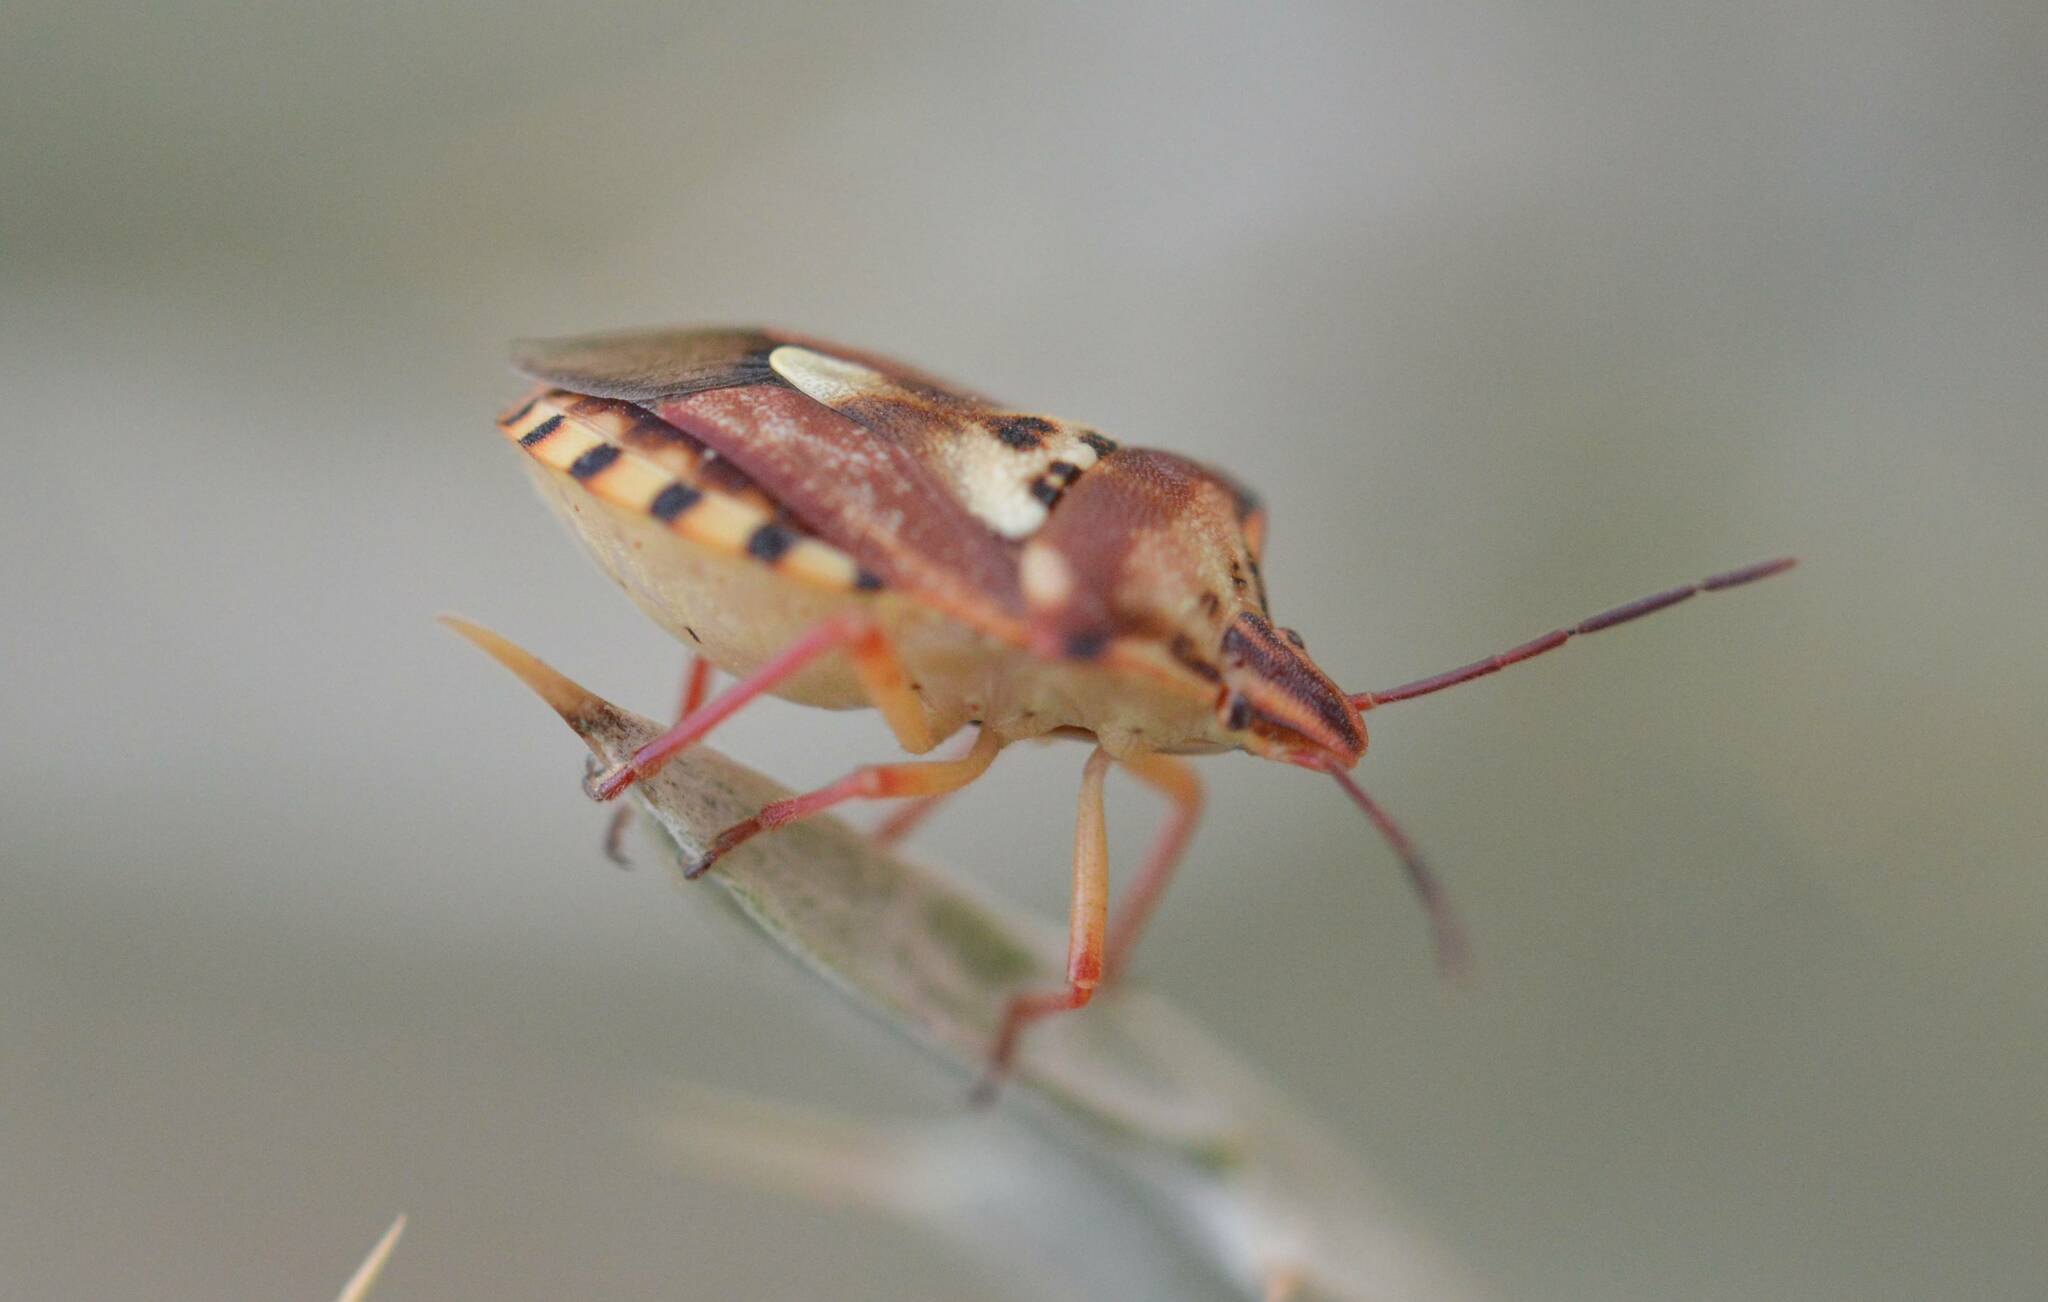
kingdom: Animalia
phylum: Arthropoda
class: Insecta
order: Hemiptera
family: Miridae
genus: Orthops
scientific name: Orthops kalmii
